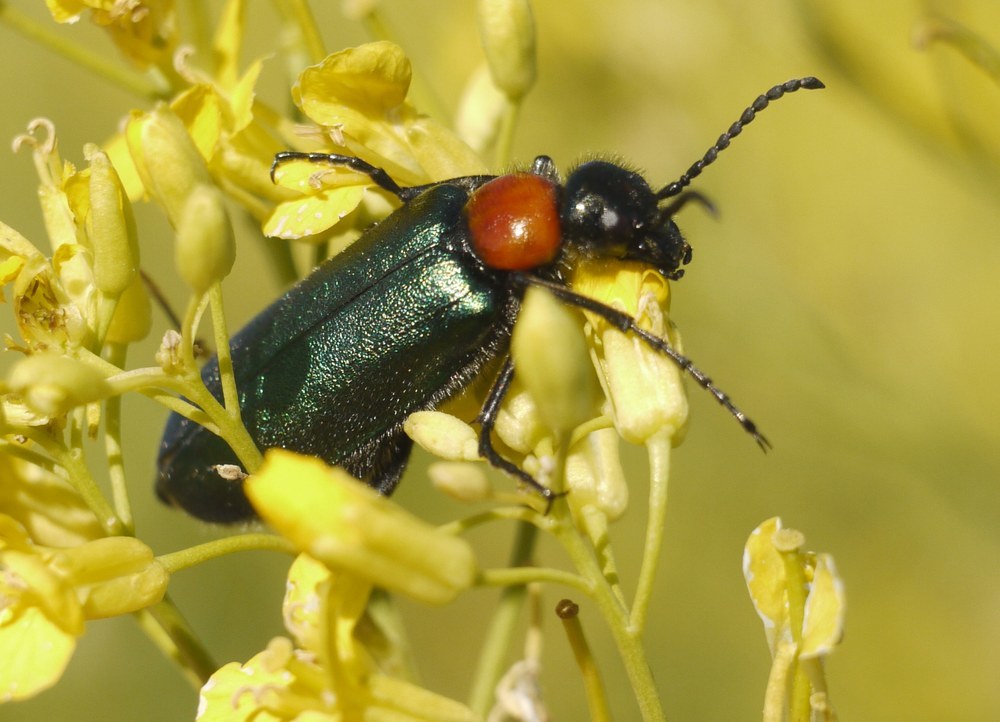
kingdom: Animalia
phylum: Arthropoda
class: Insecta
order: Coleoptera
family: Meloidae
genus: Alosimus
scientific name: Alosimus syriacus
